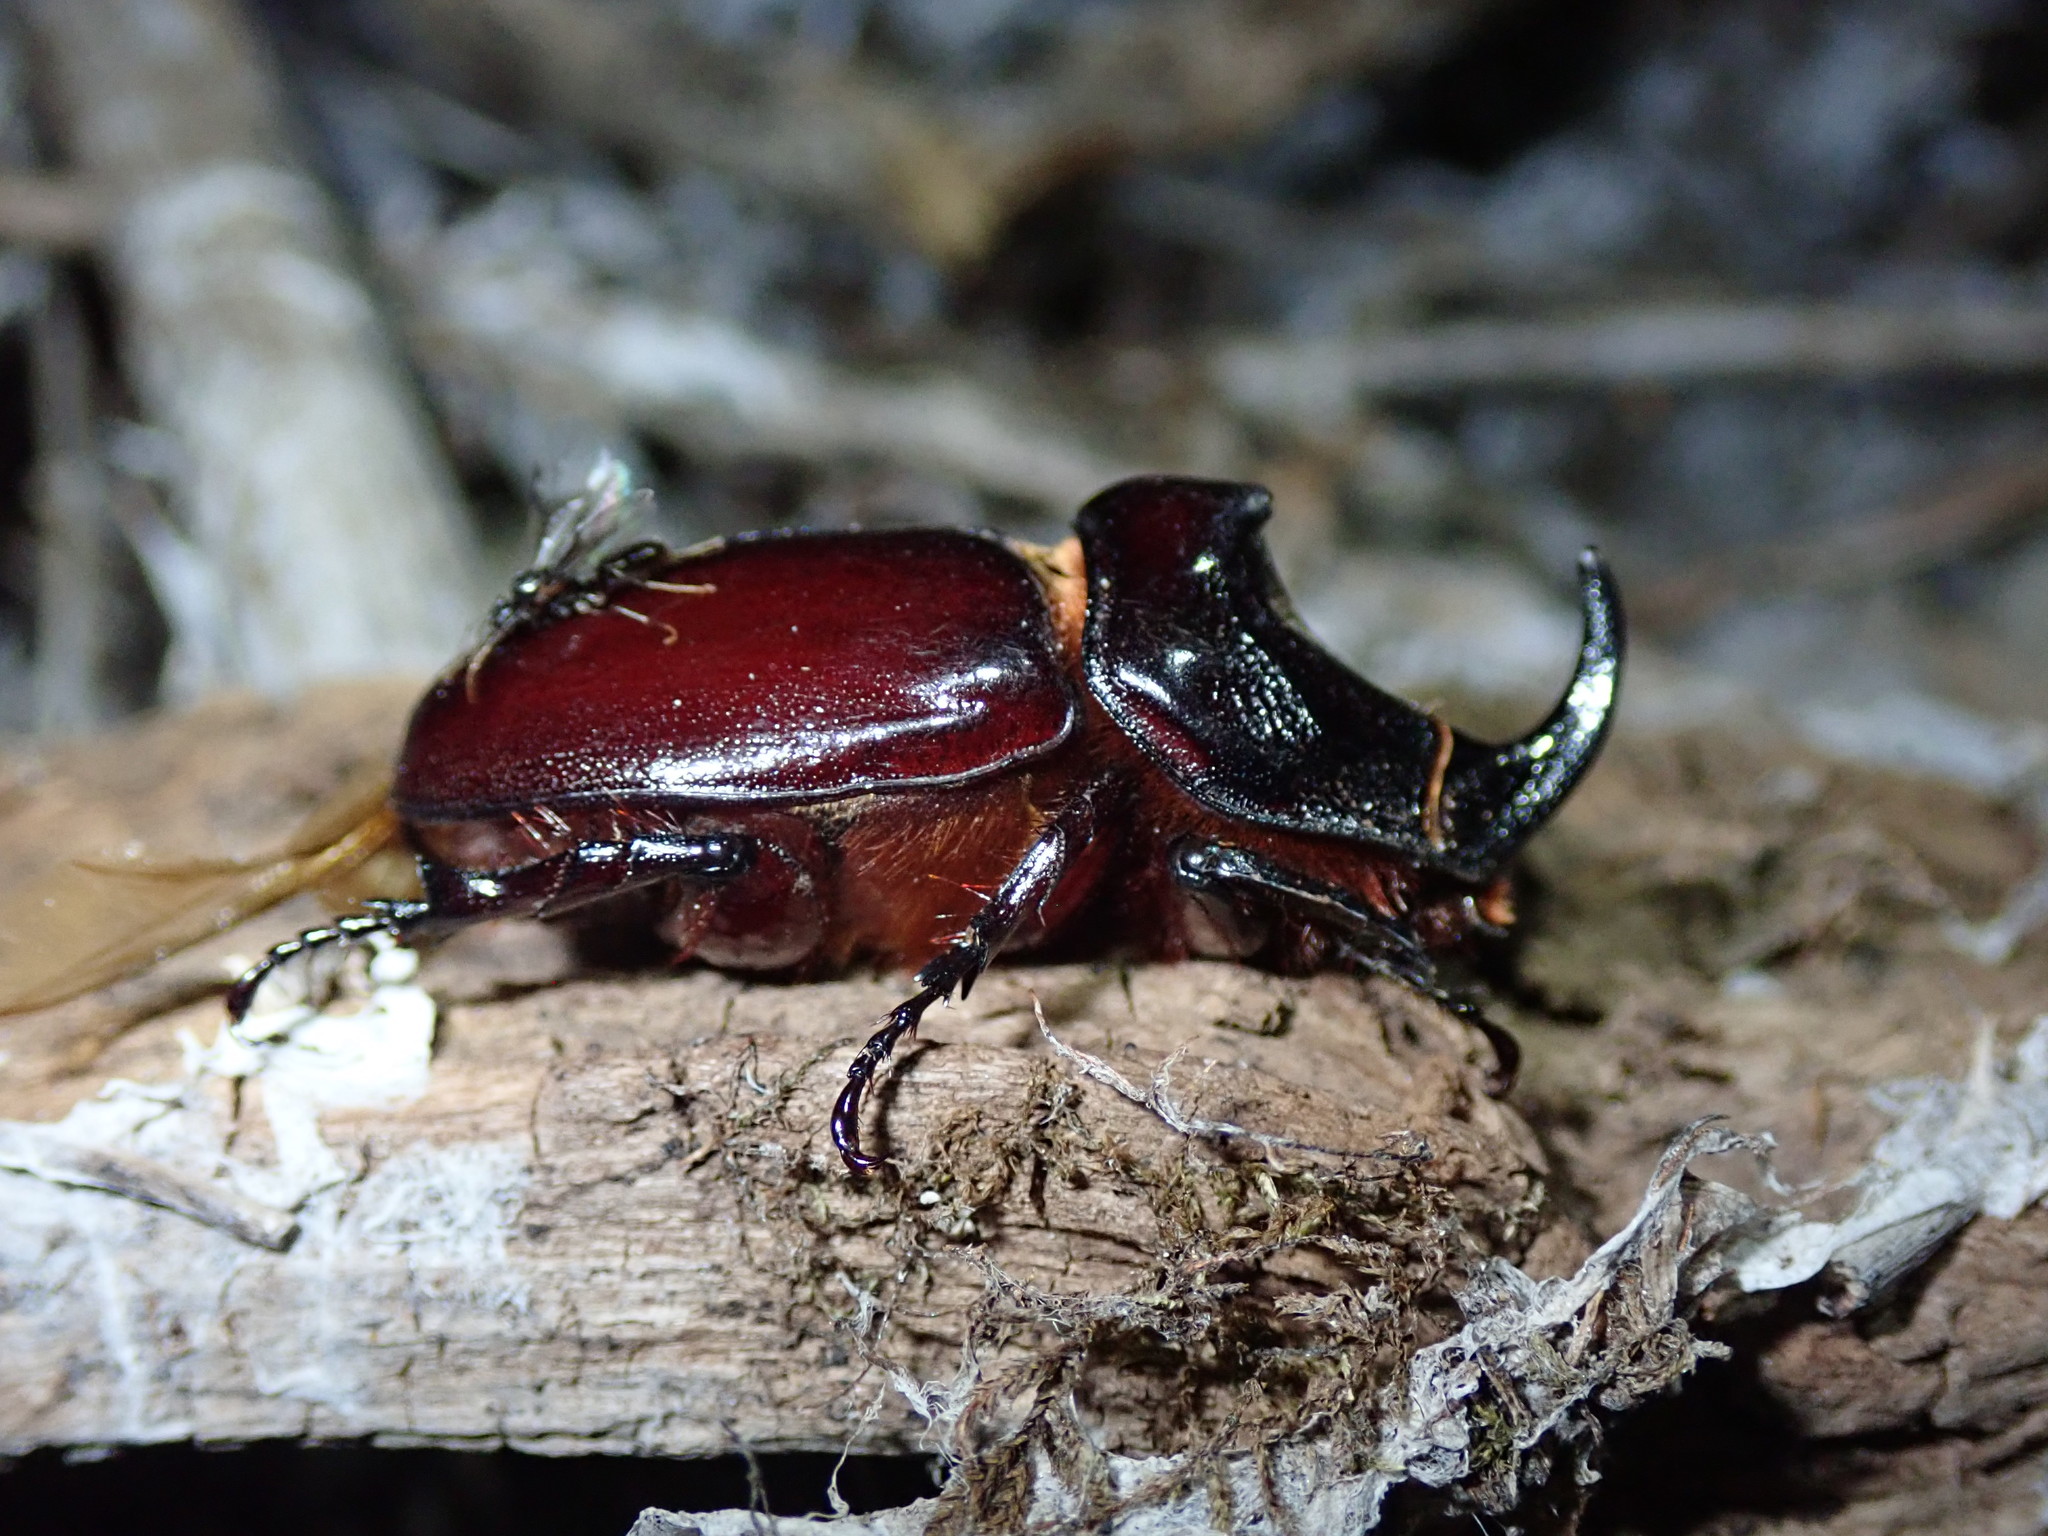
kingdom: Animalia
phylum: Arthropoda
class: Insecta
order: Coleoptera
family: Scarabaeidae
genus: Oryctes
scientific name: Oryctes nasicornis
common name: European rhinoceros beetle
